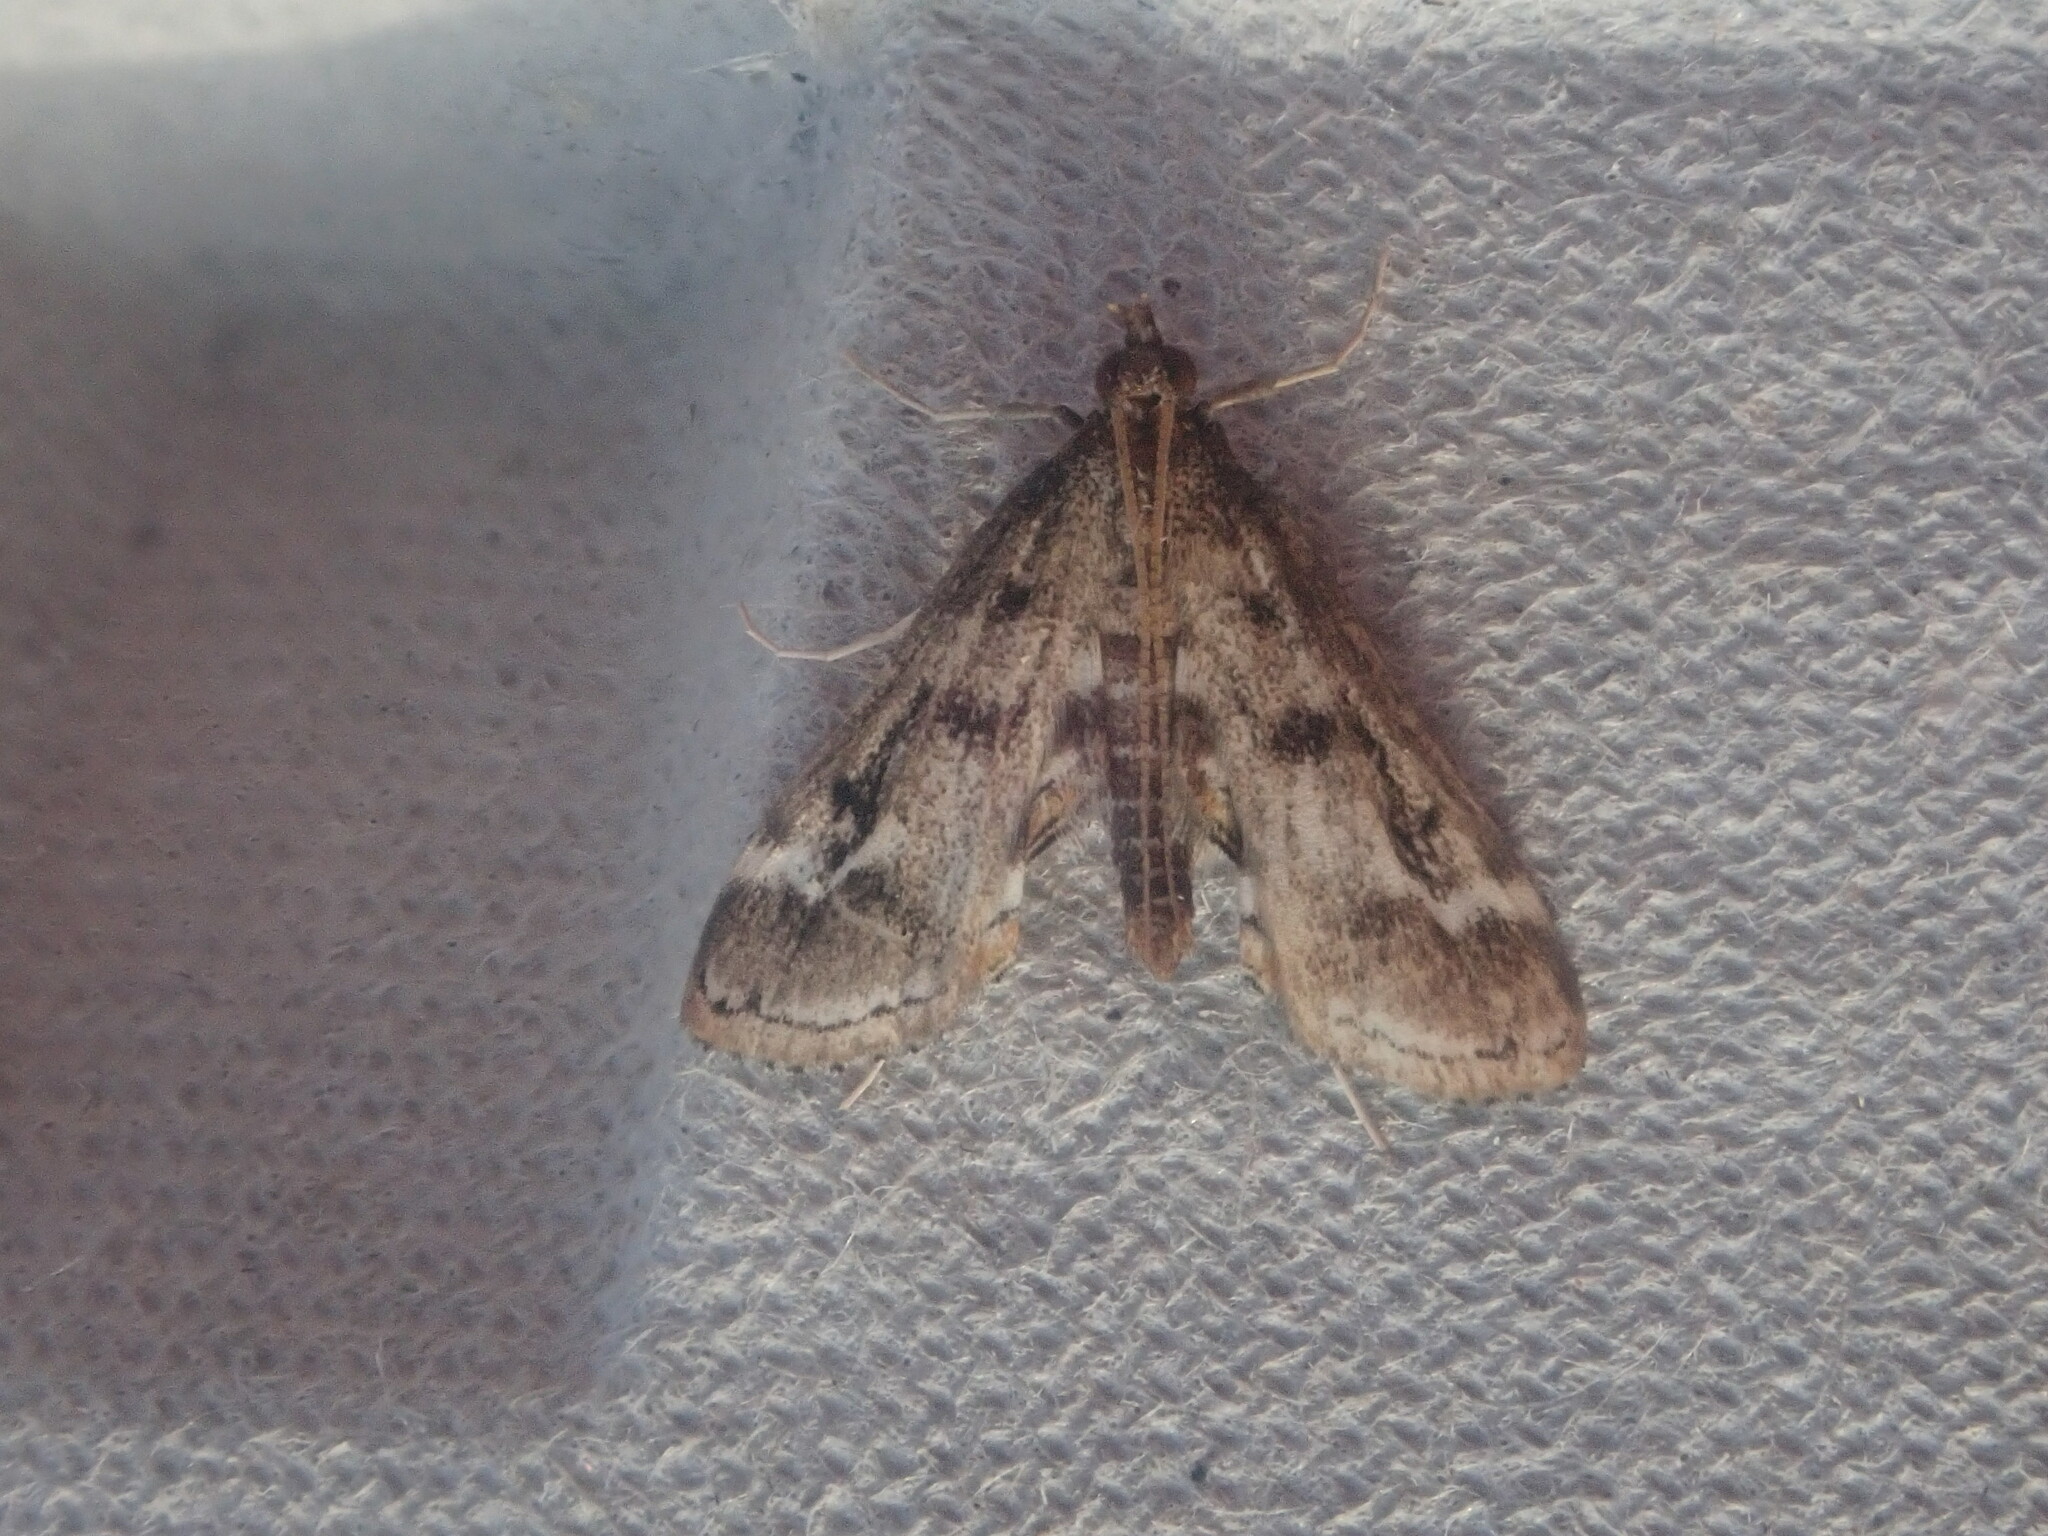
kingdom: Animalia
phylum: Arthropoda
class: Insecta
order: Lepidoptera
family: Crambidae
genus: Parapoynx
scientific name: Parapoynx obscuralis
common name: American china-mark
